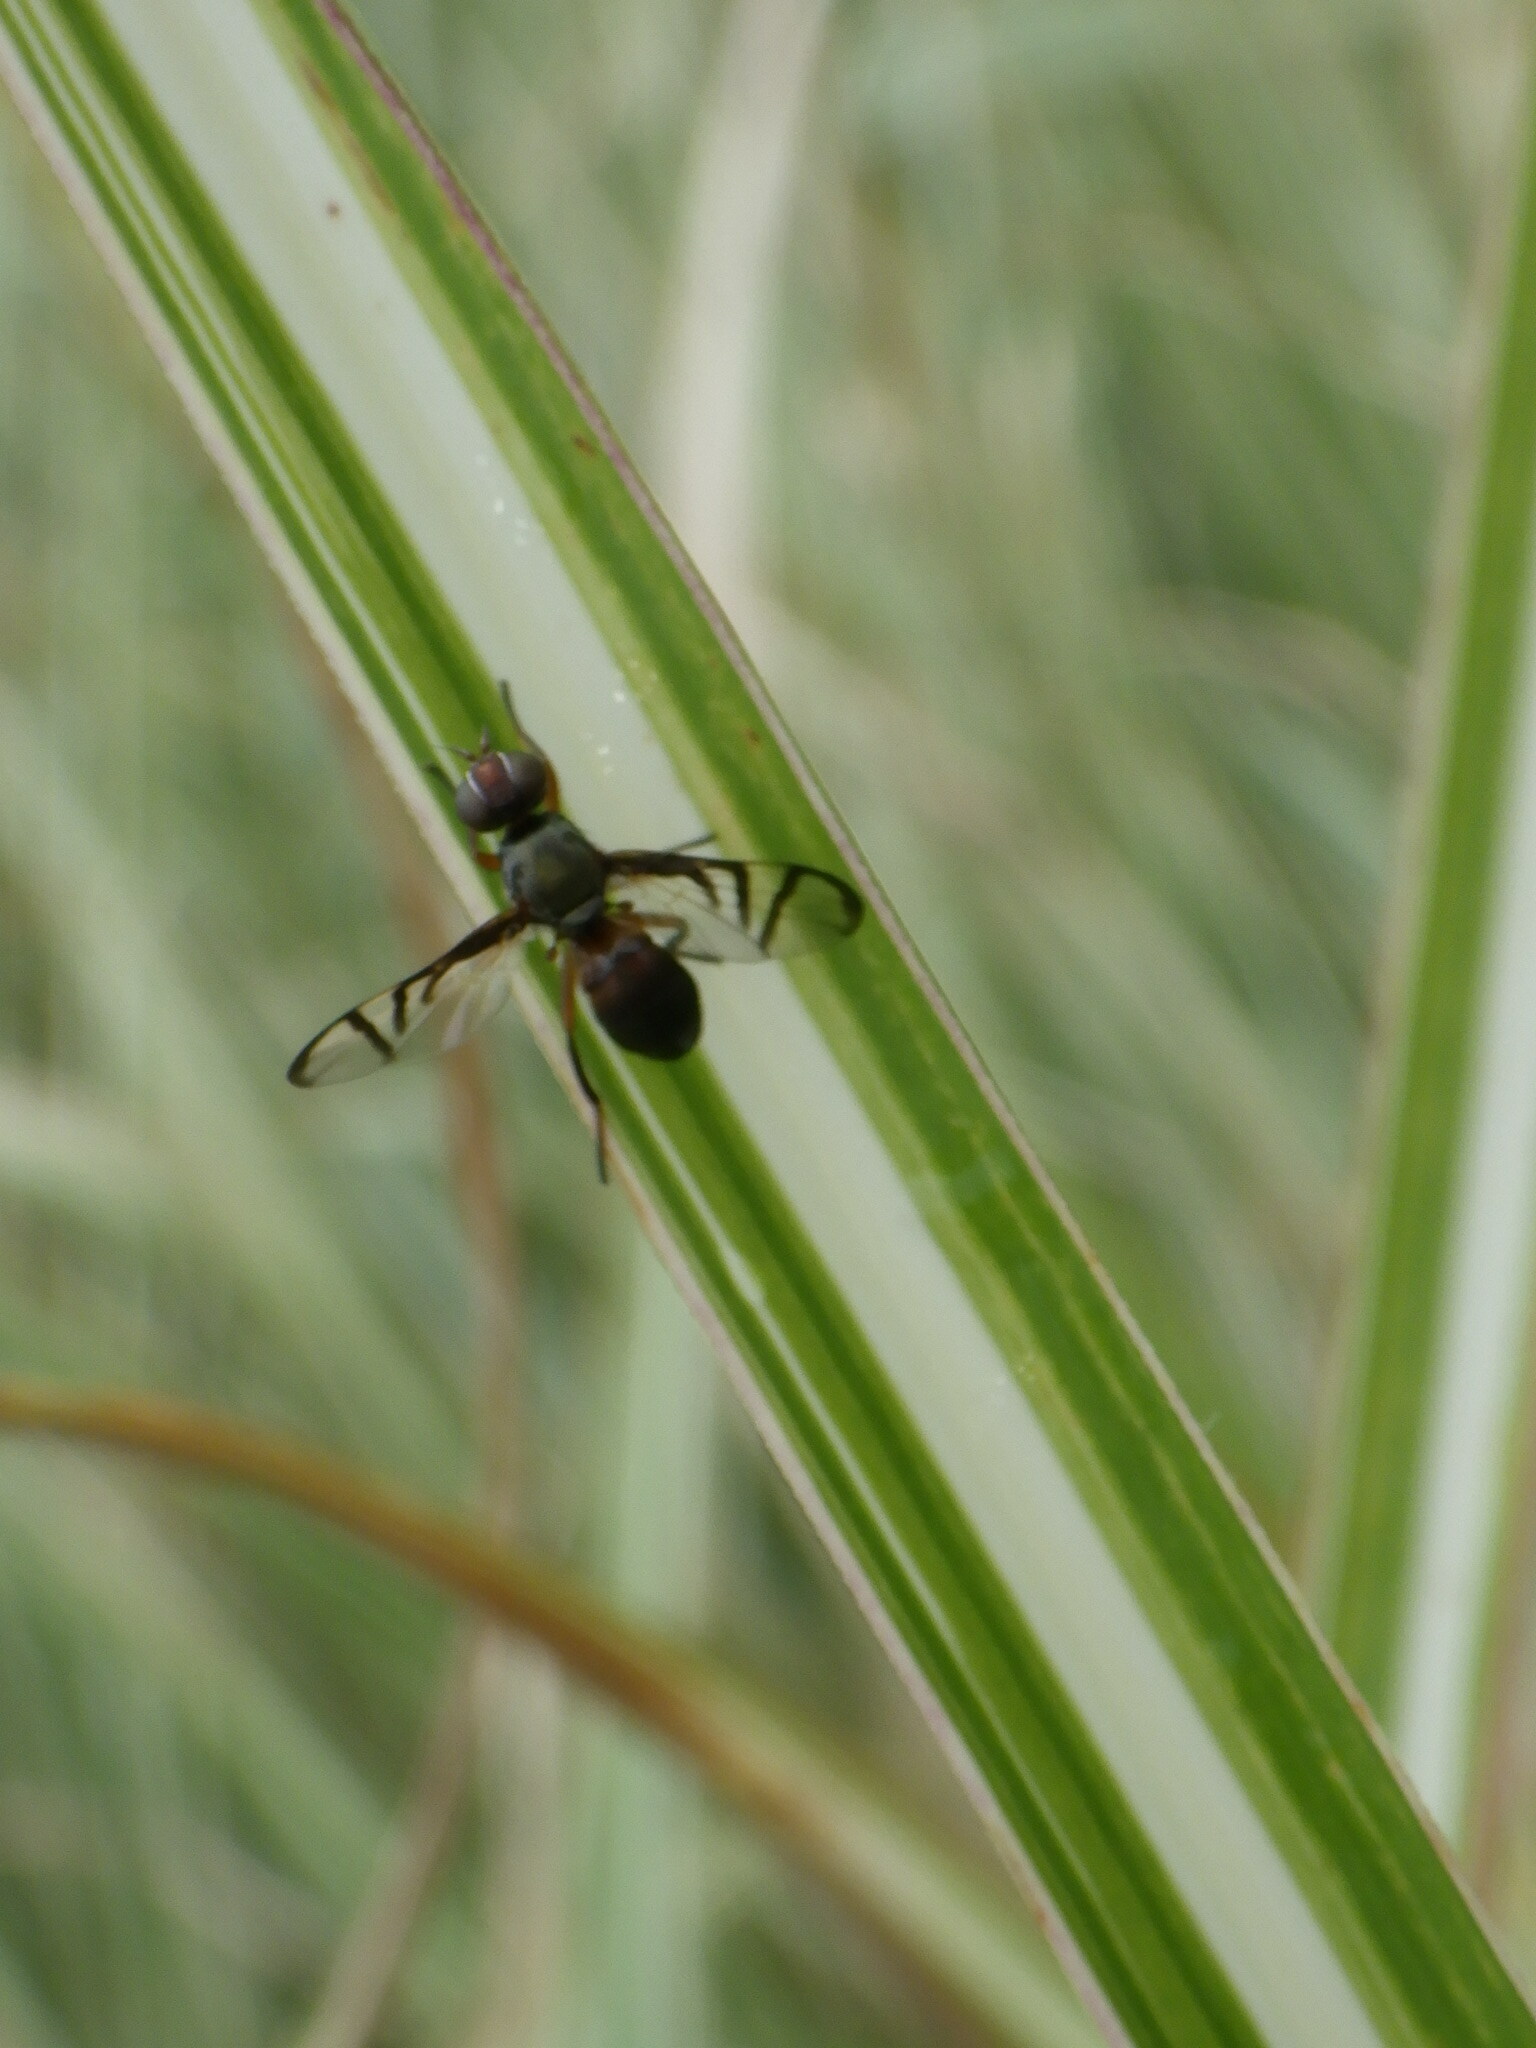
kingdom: Animalia
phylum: Arthropoda
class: Insecta
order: Diptera
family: Platystomatidae
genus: Rivellia
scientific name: Rivellia
